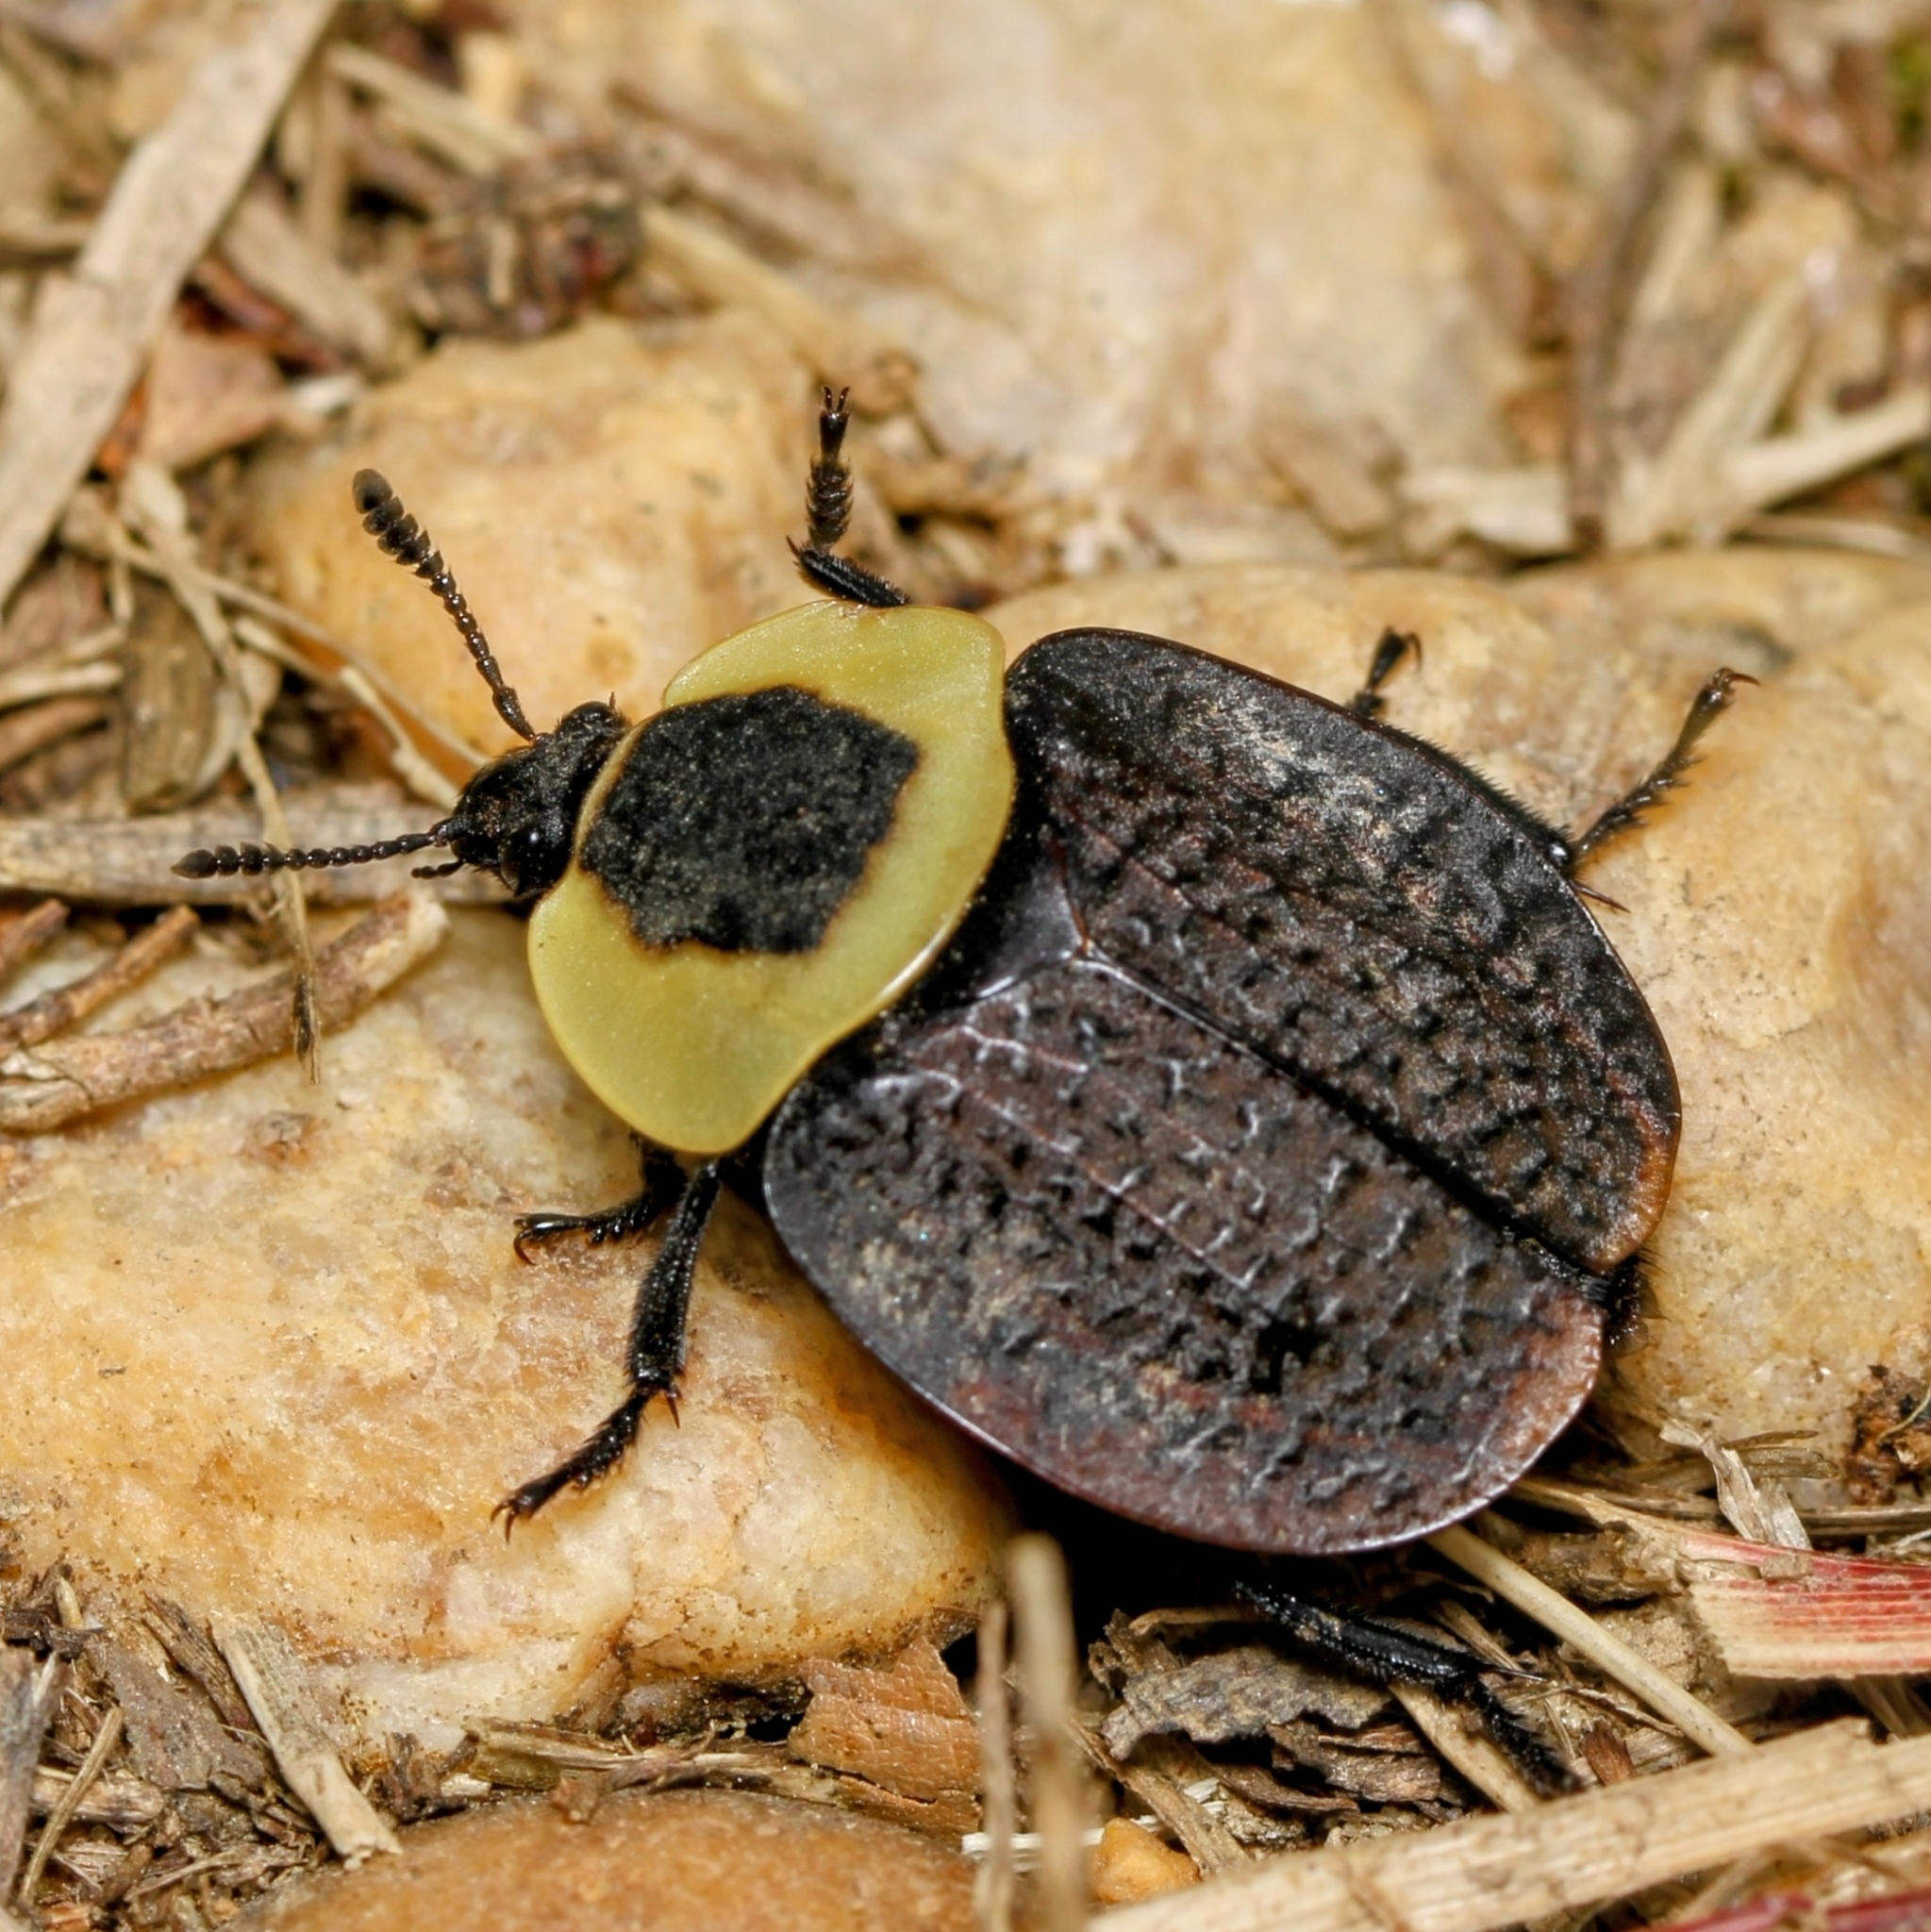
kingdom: Animalia
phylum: Arthropoda
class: Insecta
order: Coleoptera
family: Staphylinidae
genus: Necrophila
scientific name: Necrophila americana
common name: American carrion beetle
